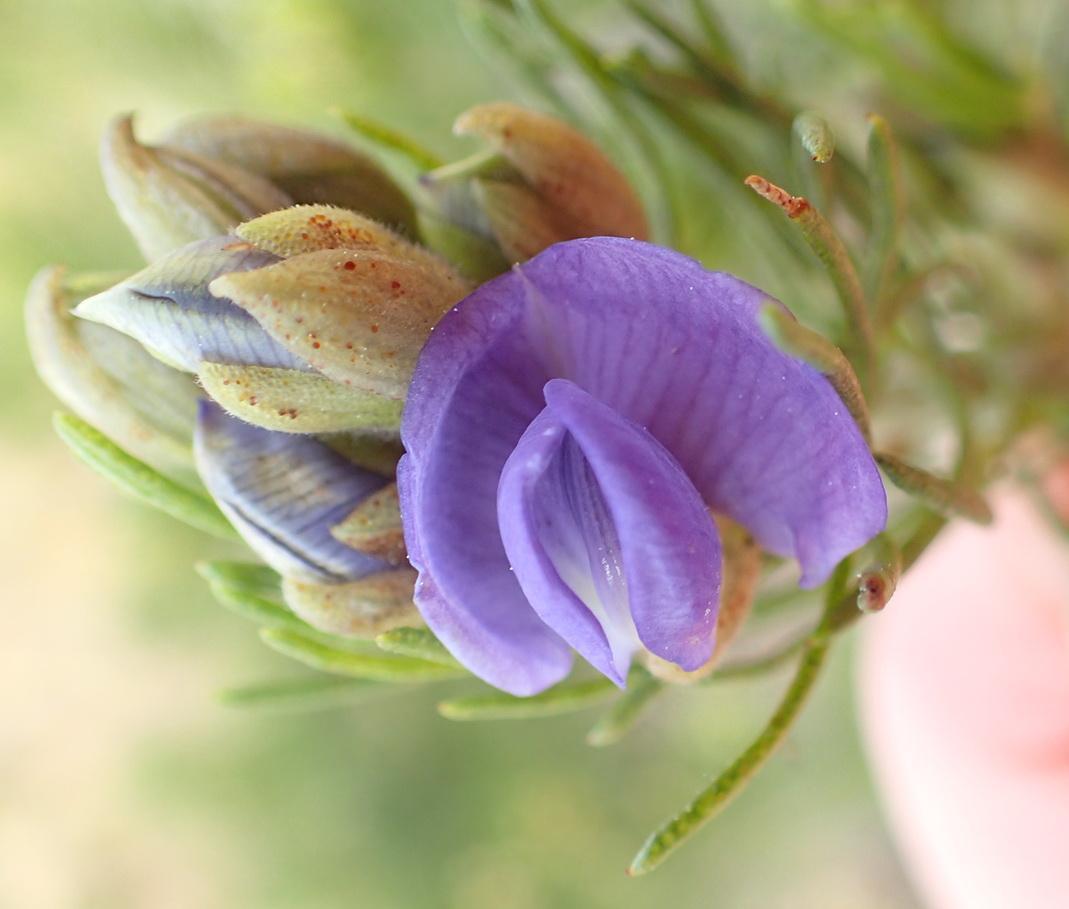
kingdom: Plantae
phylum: Tracheophyta
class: Magnoliopsida
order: Fabales
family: Fabaceae
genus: Psoralea
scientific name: Psoralea speciosa
